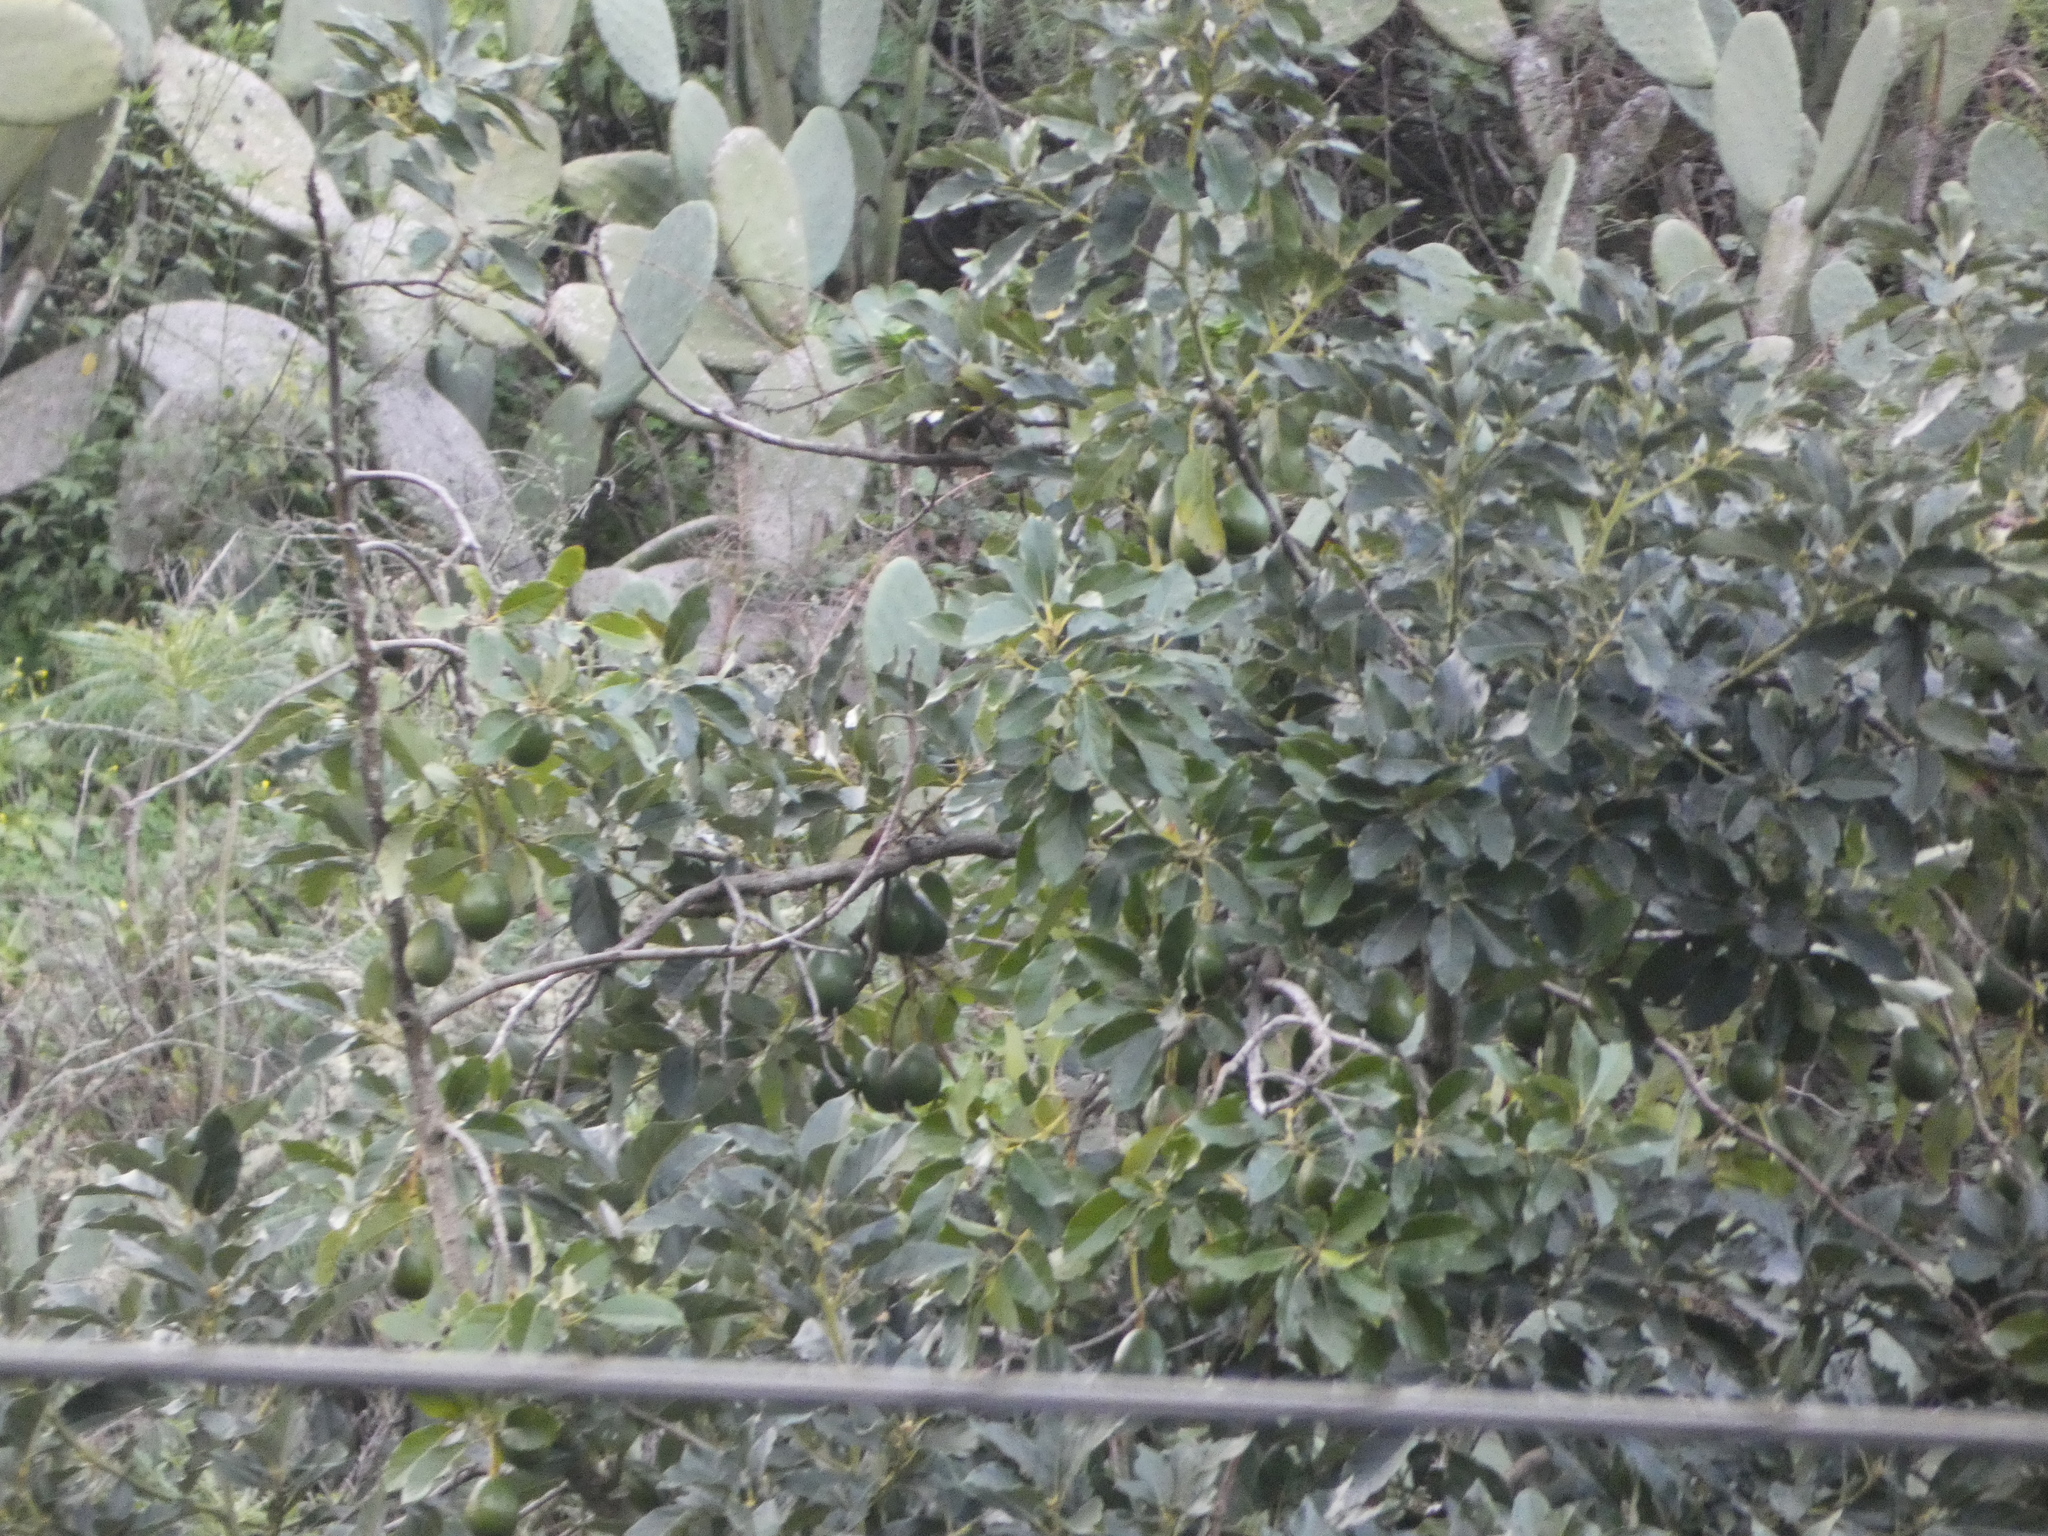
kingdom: Plantae
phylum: Tracheophyta
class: Magnoliopsida
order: Laurales
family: Lauraceae
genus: Persea
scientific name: Persea americana
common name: Avocado
